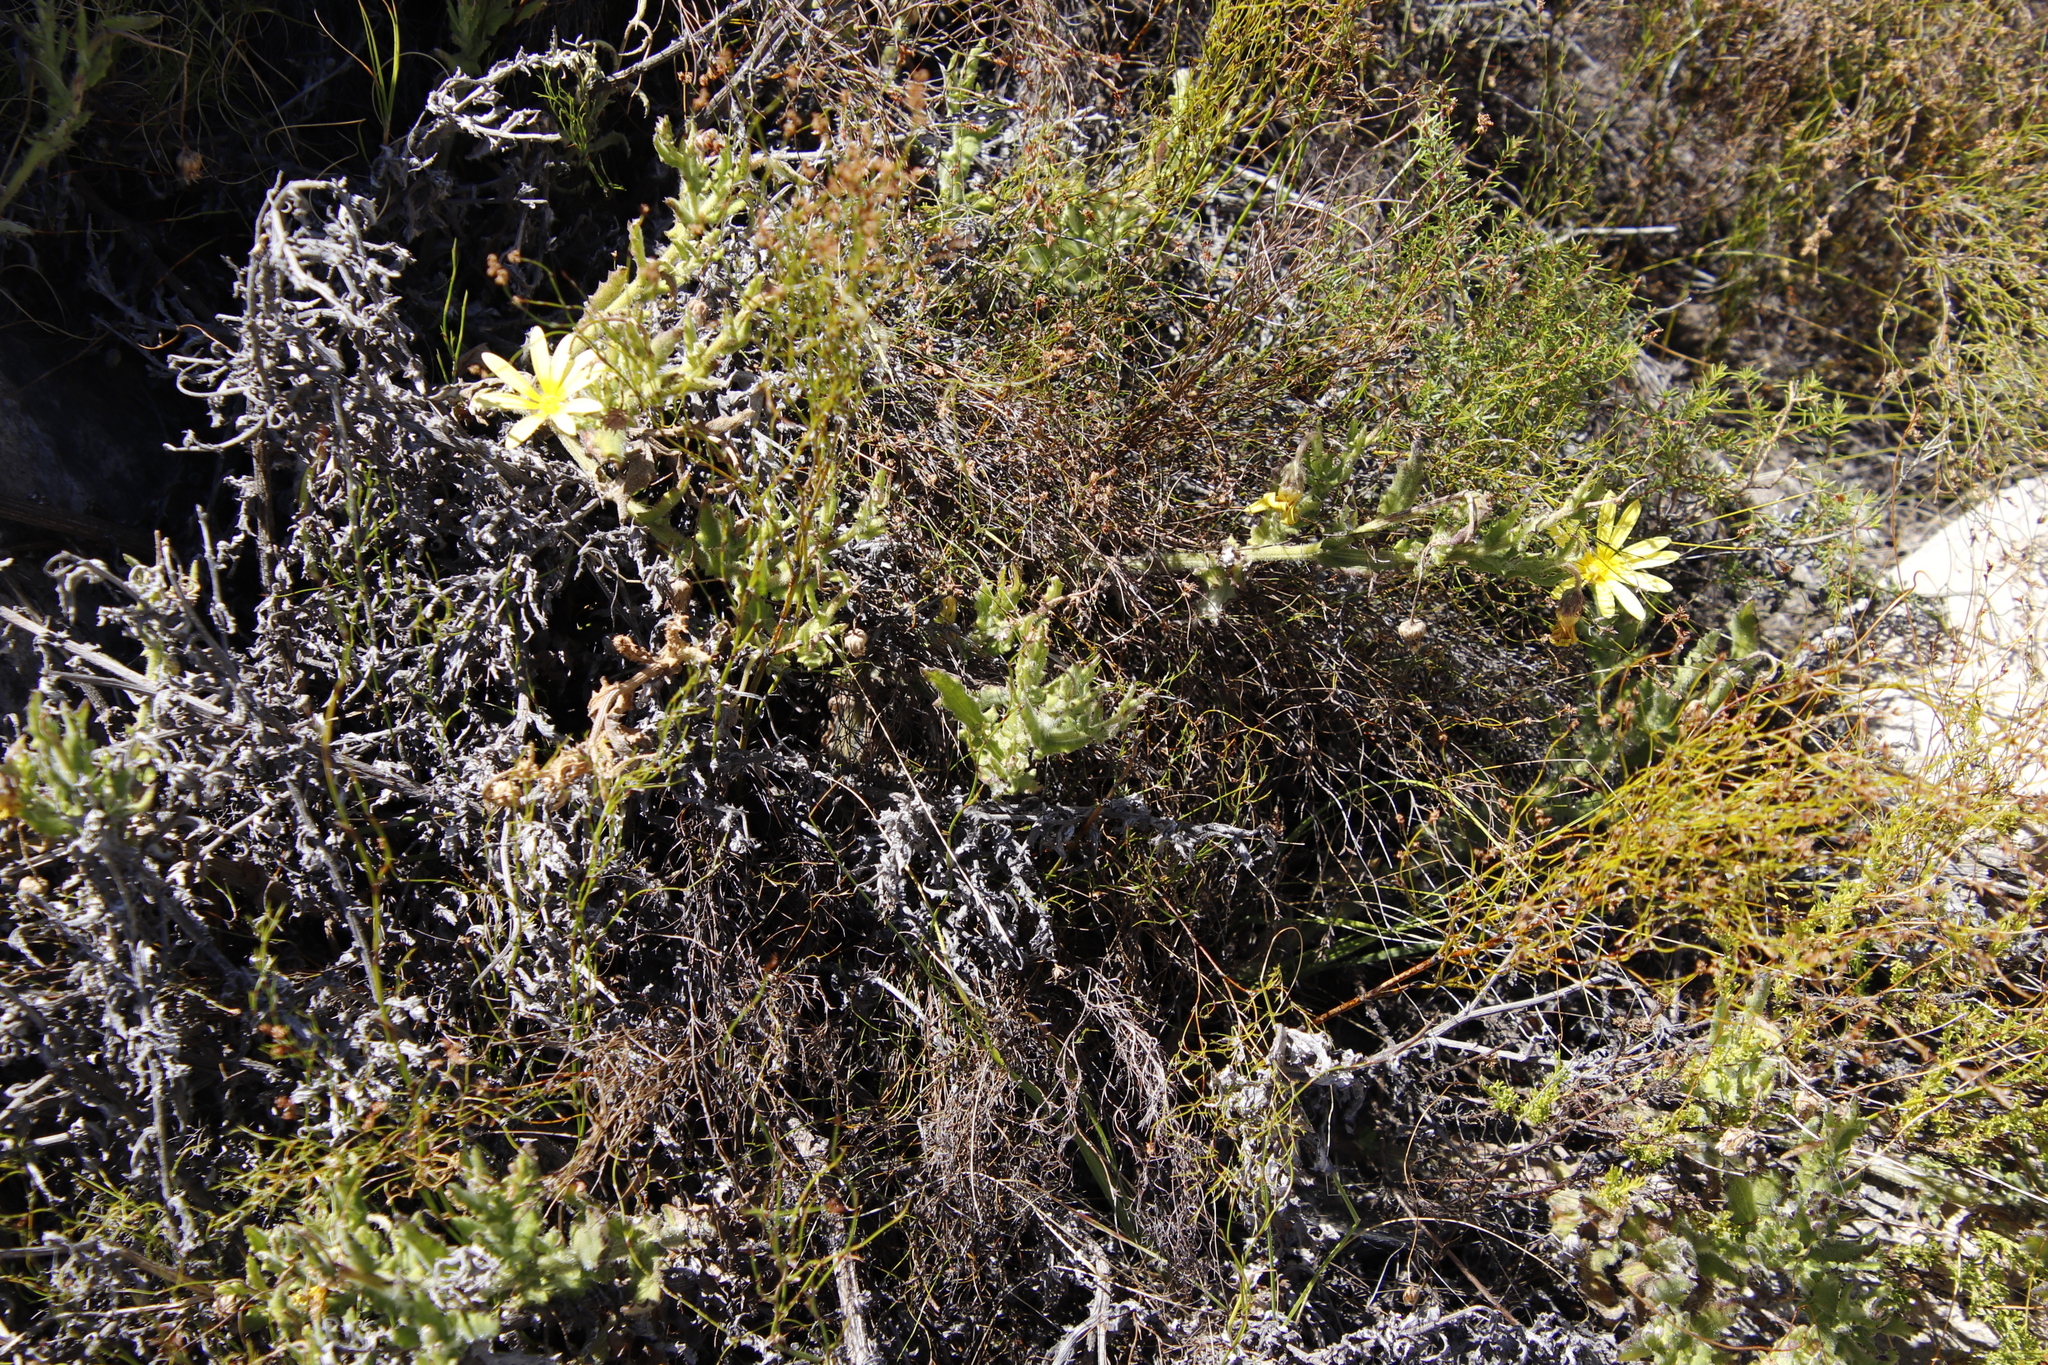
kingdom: Plantae
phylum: Tracheophyta
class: Magnoliopsida
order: Asterales
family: Asteraceae
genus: Arctotis
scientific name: Arctotis scabra
